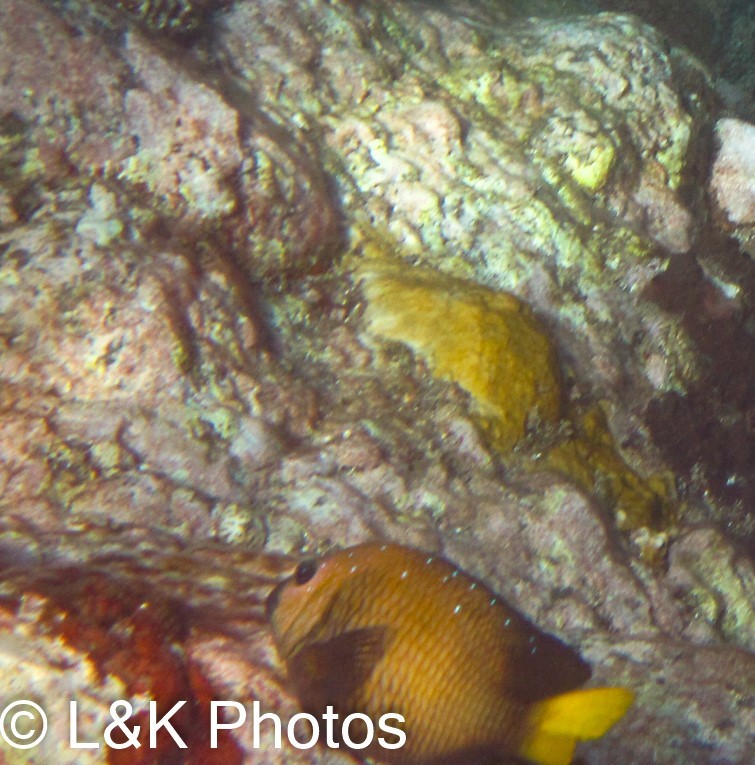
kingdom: Animalia
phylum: Chordata
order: Perciformes
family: Pomacentridae
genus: Microspathodon
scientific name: Microspathodon chrysurus
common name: Yellowtail damselfish
